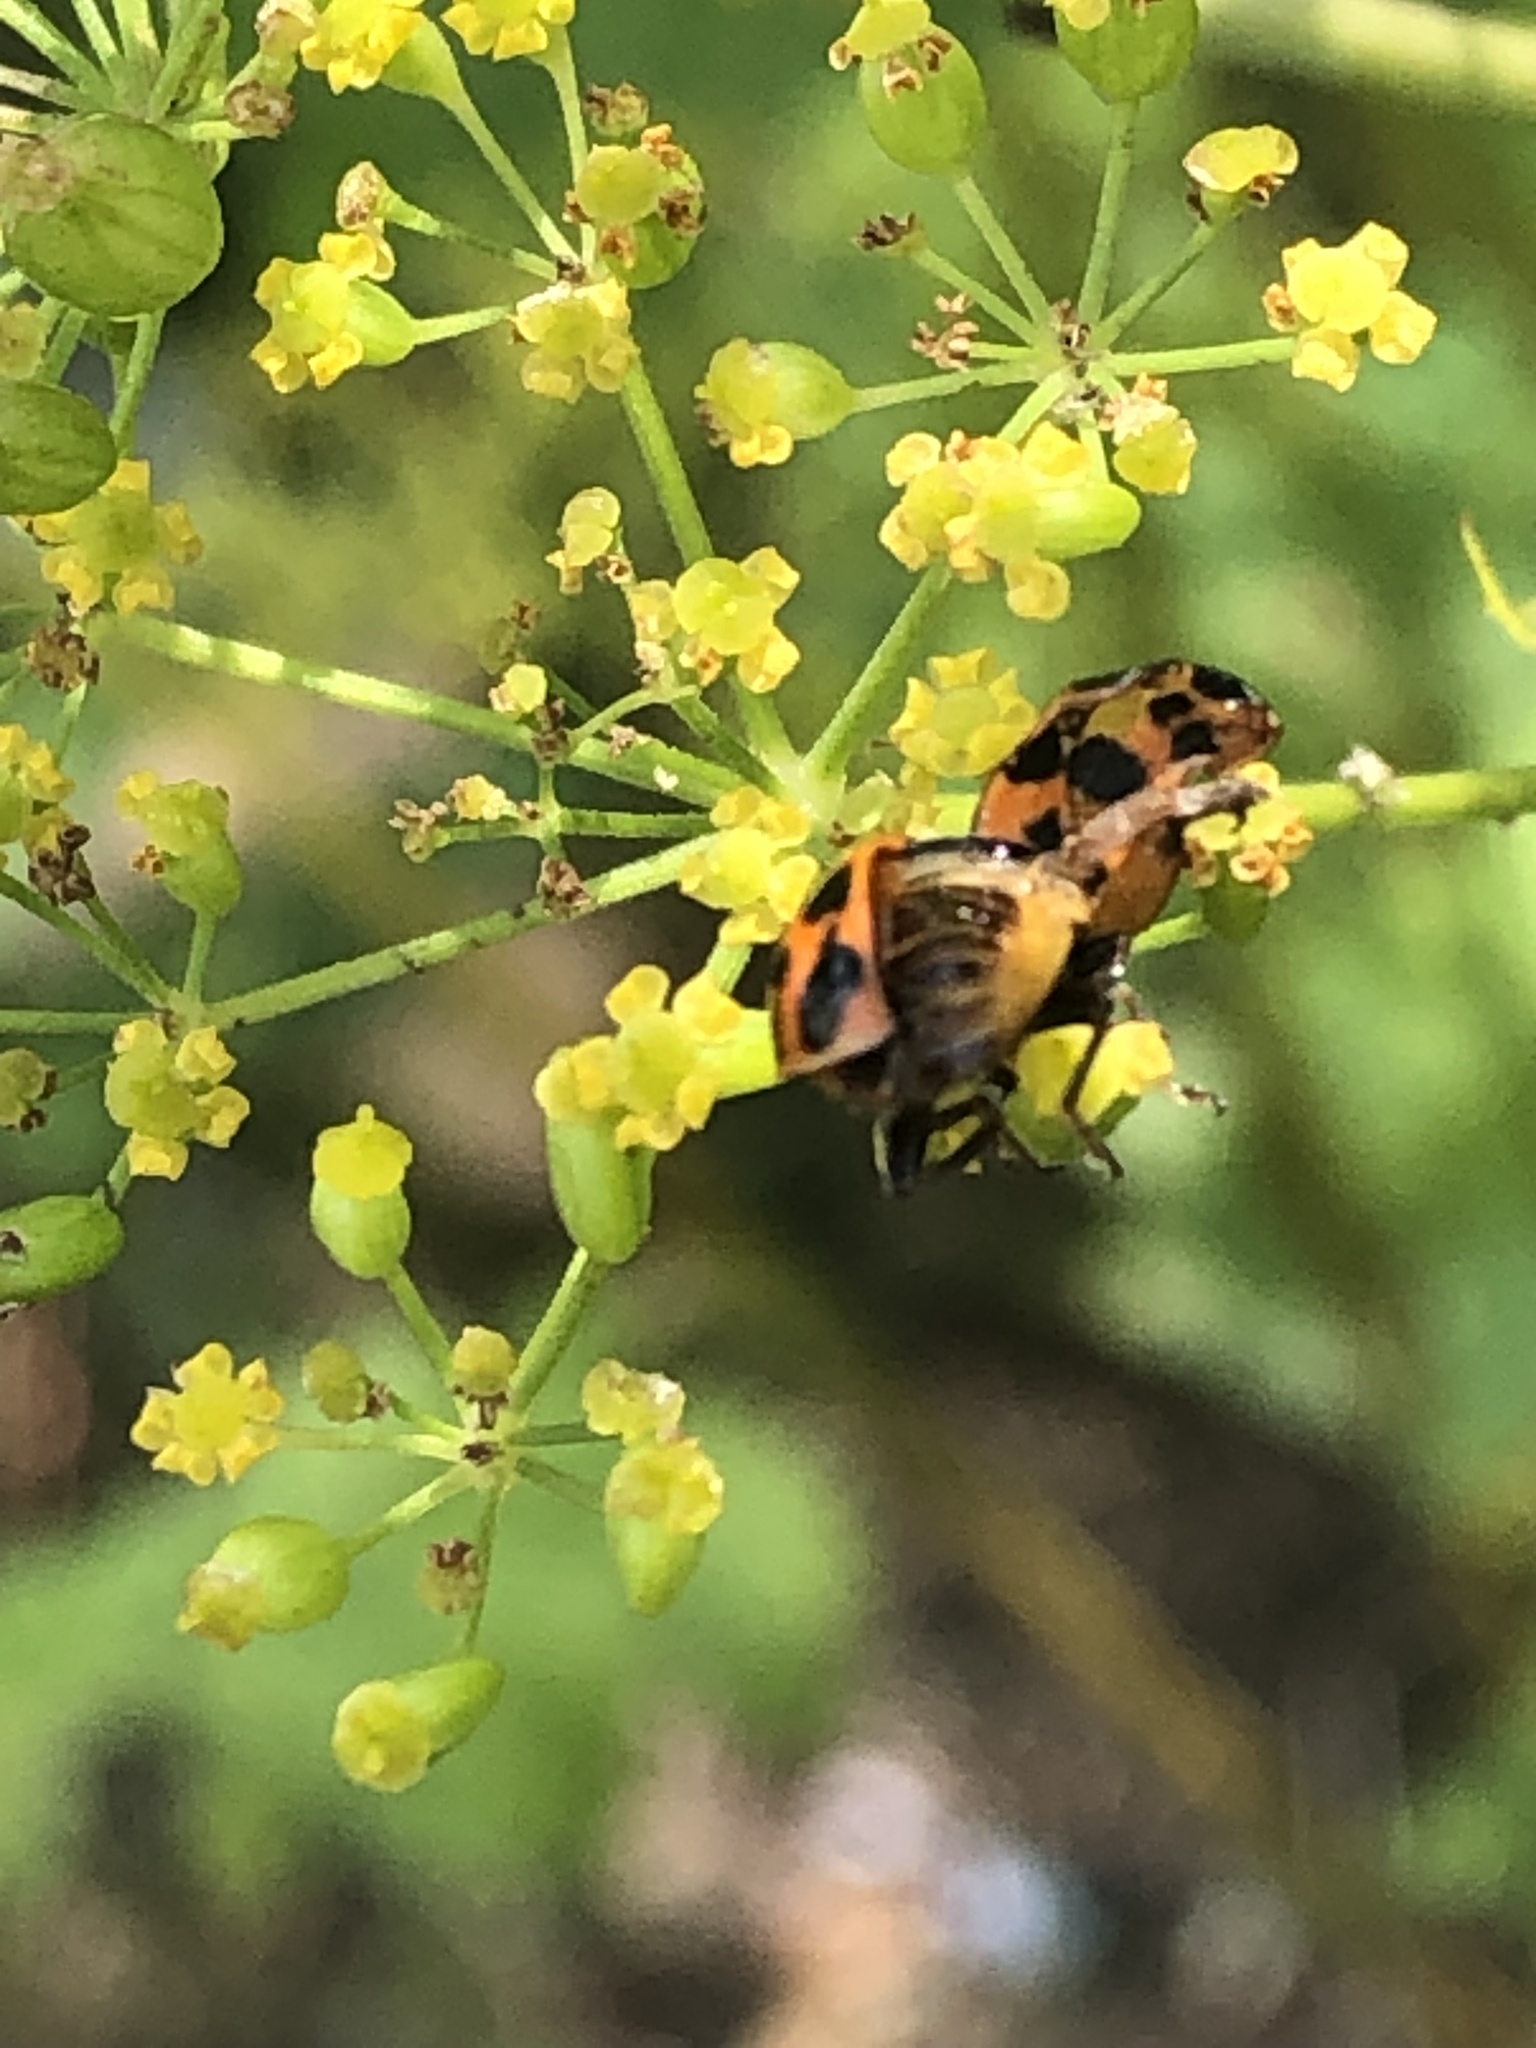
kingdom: Animalia
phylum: Arthropoda
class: Insecta
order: Coleoptera
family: Coccinellidae
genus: Harmonia
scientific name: Harmonia axyridis
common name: Harlequin ladybird
